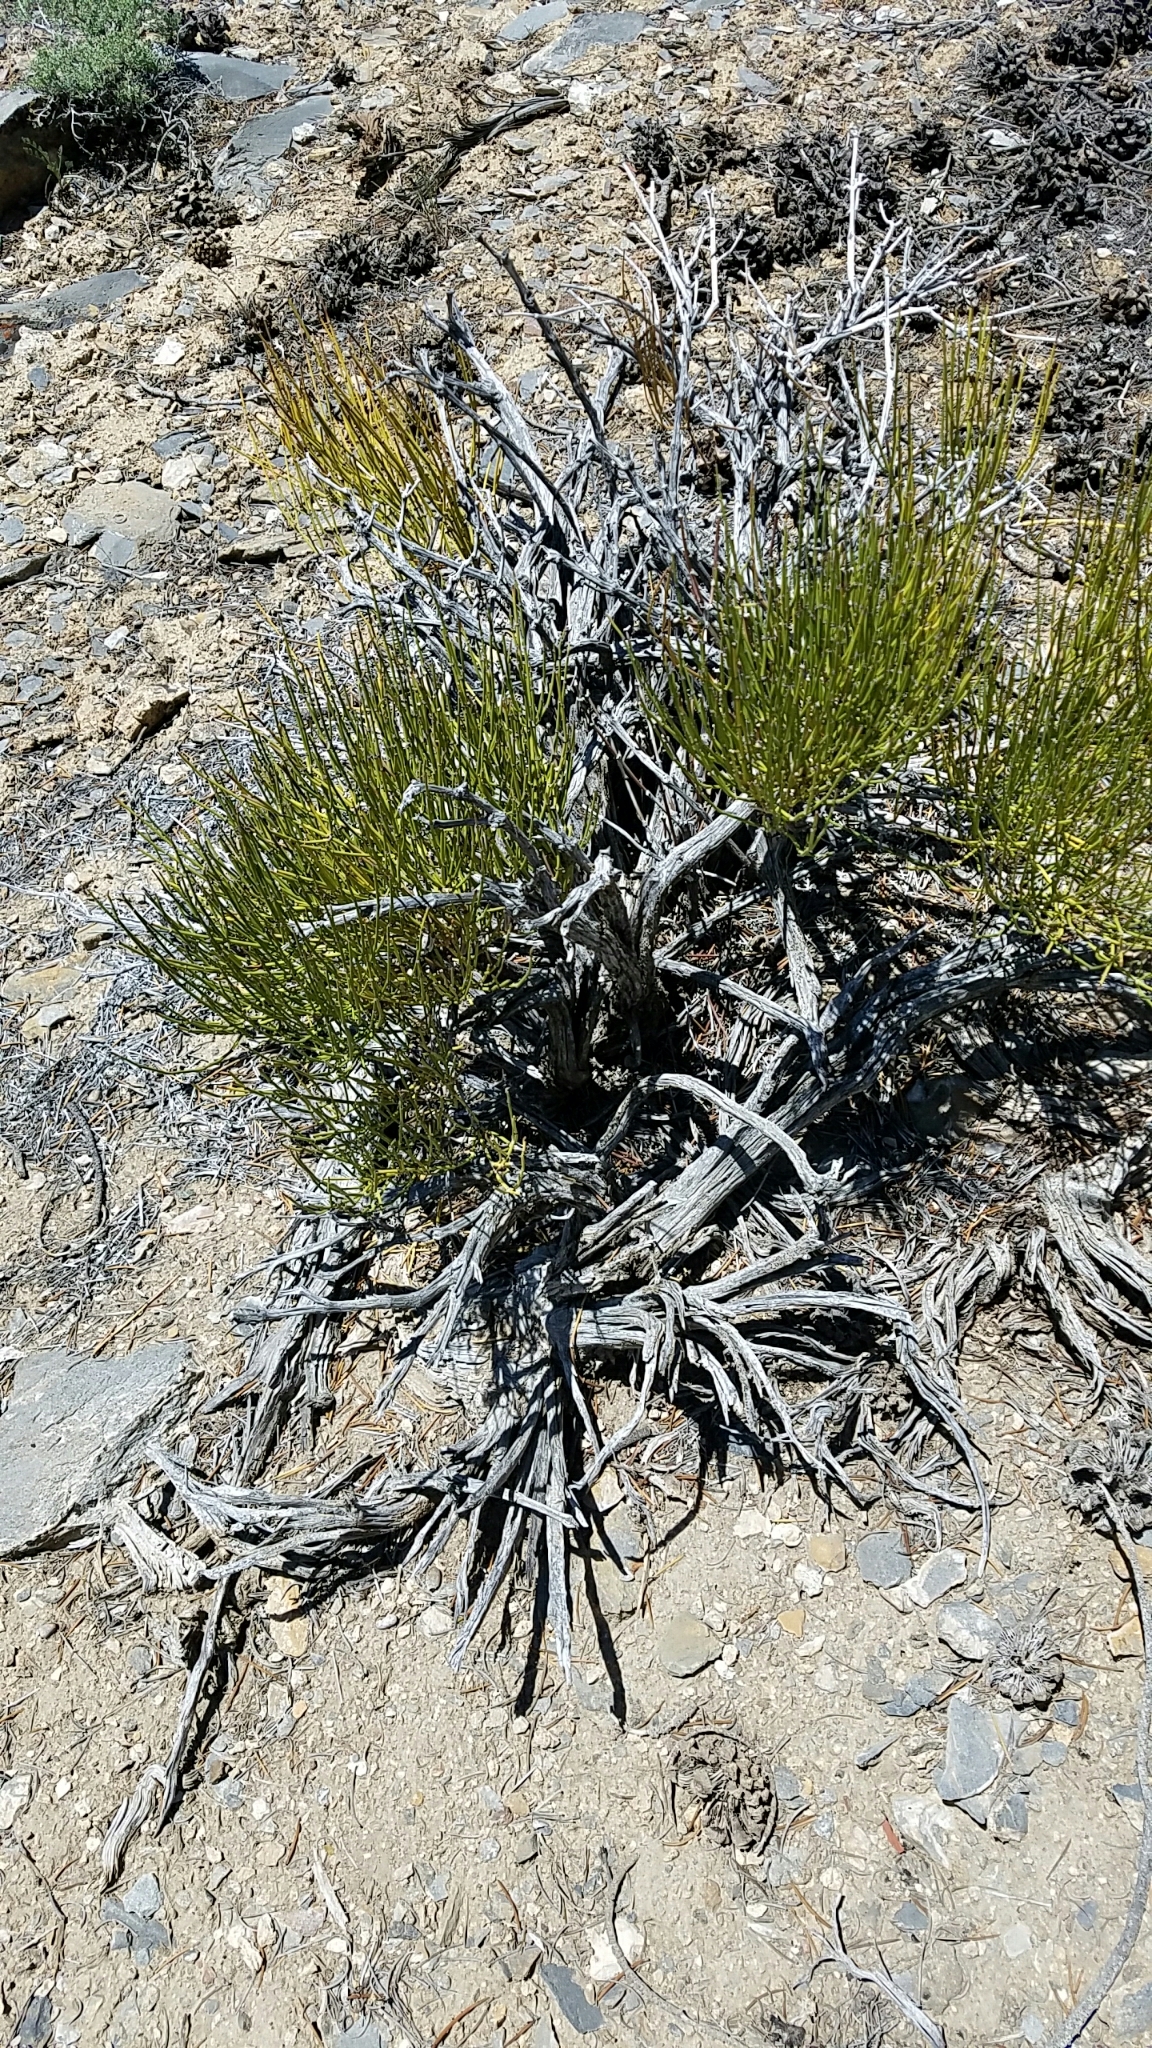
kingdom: Plantae
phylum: Tracheophyta
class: Gnetopsida
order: Ephedrales
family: Ephedraceae
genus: Ephedra
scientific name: Ephedra viridis
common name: Green ephedra
